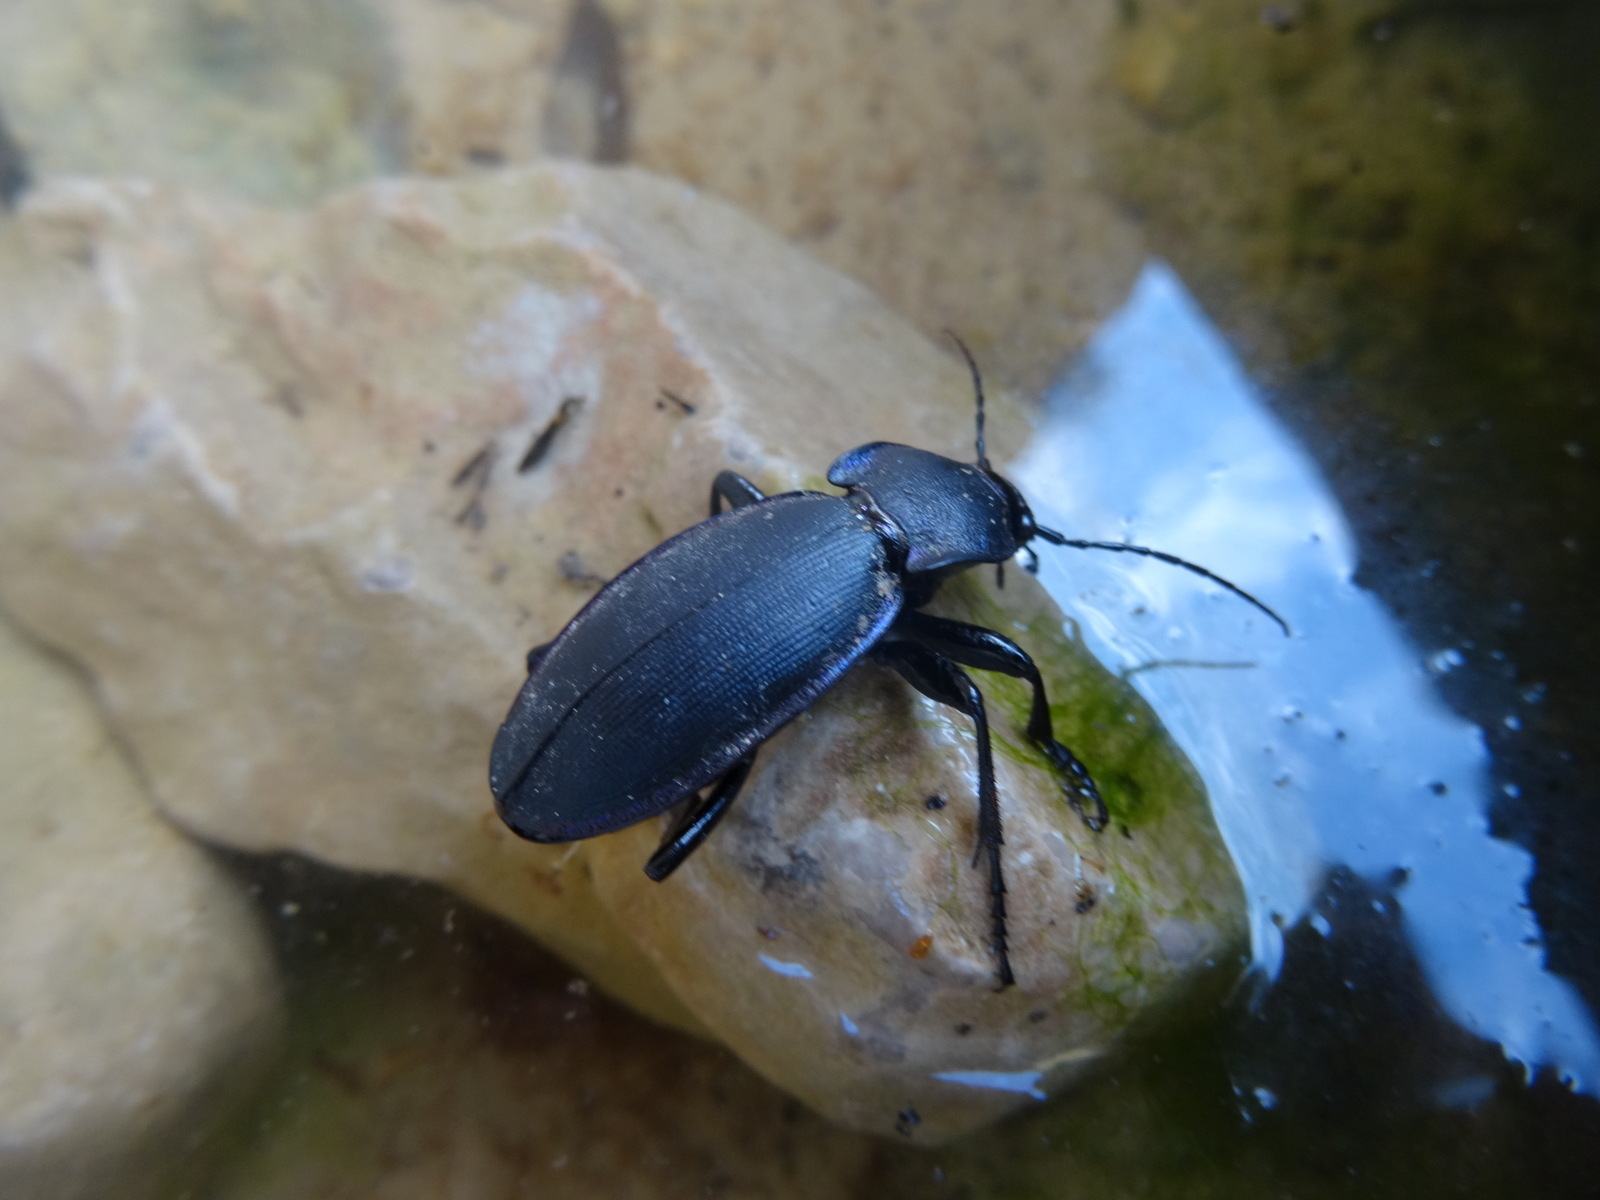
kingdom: Animalia
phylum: Arthropoda
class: Insecta
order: Coleoptera
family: Carabidae
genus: Carabus
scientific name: Carabus purpurascens
